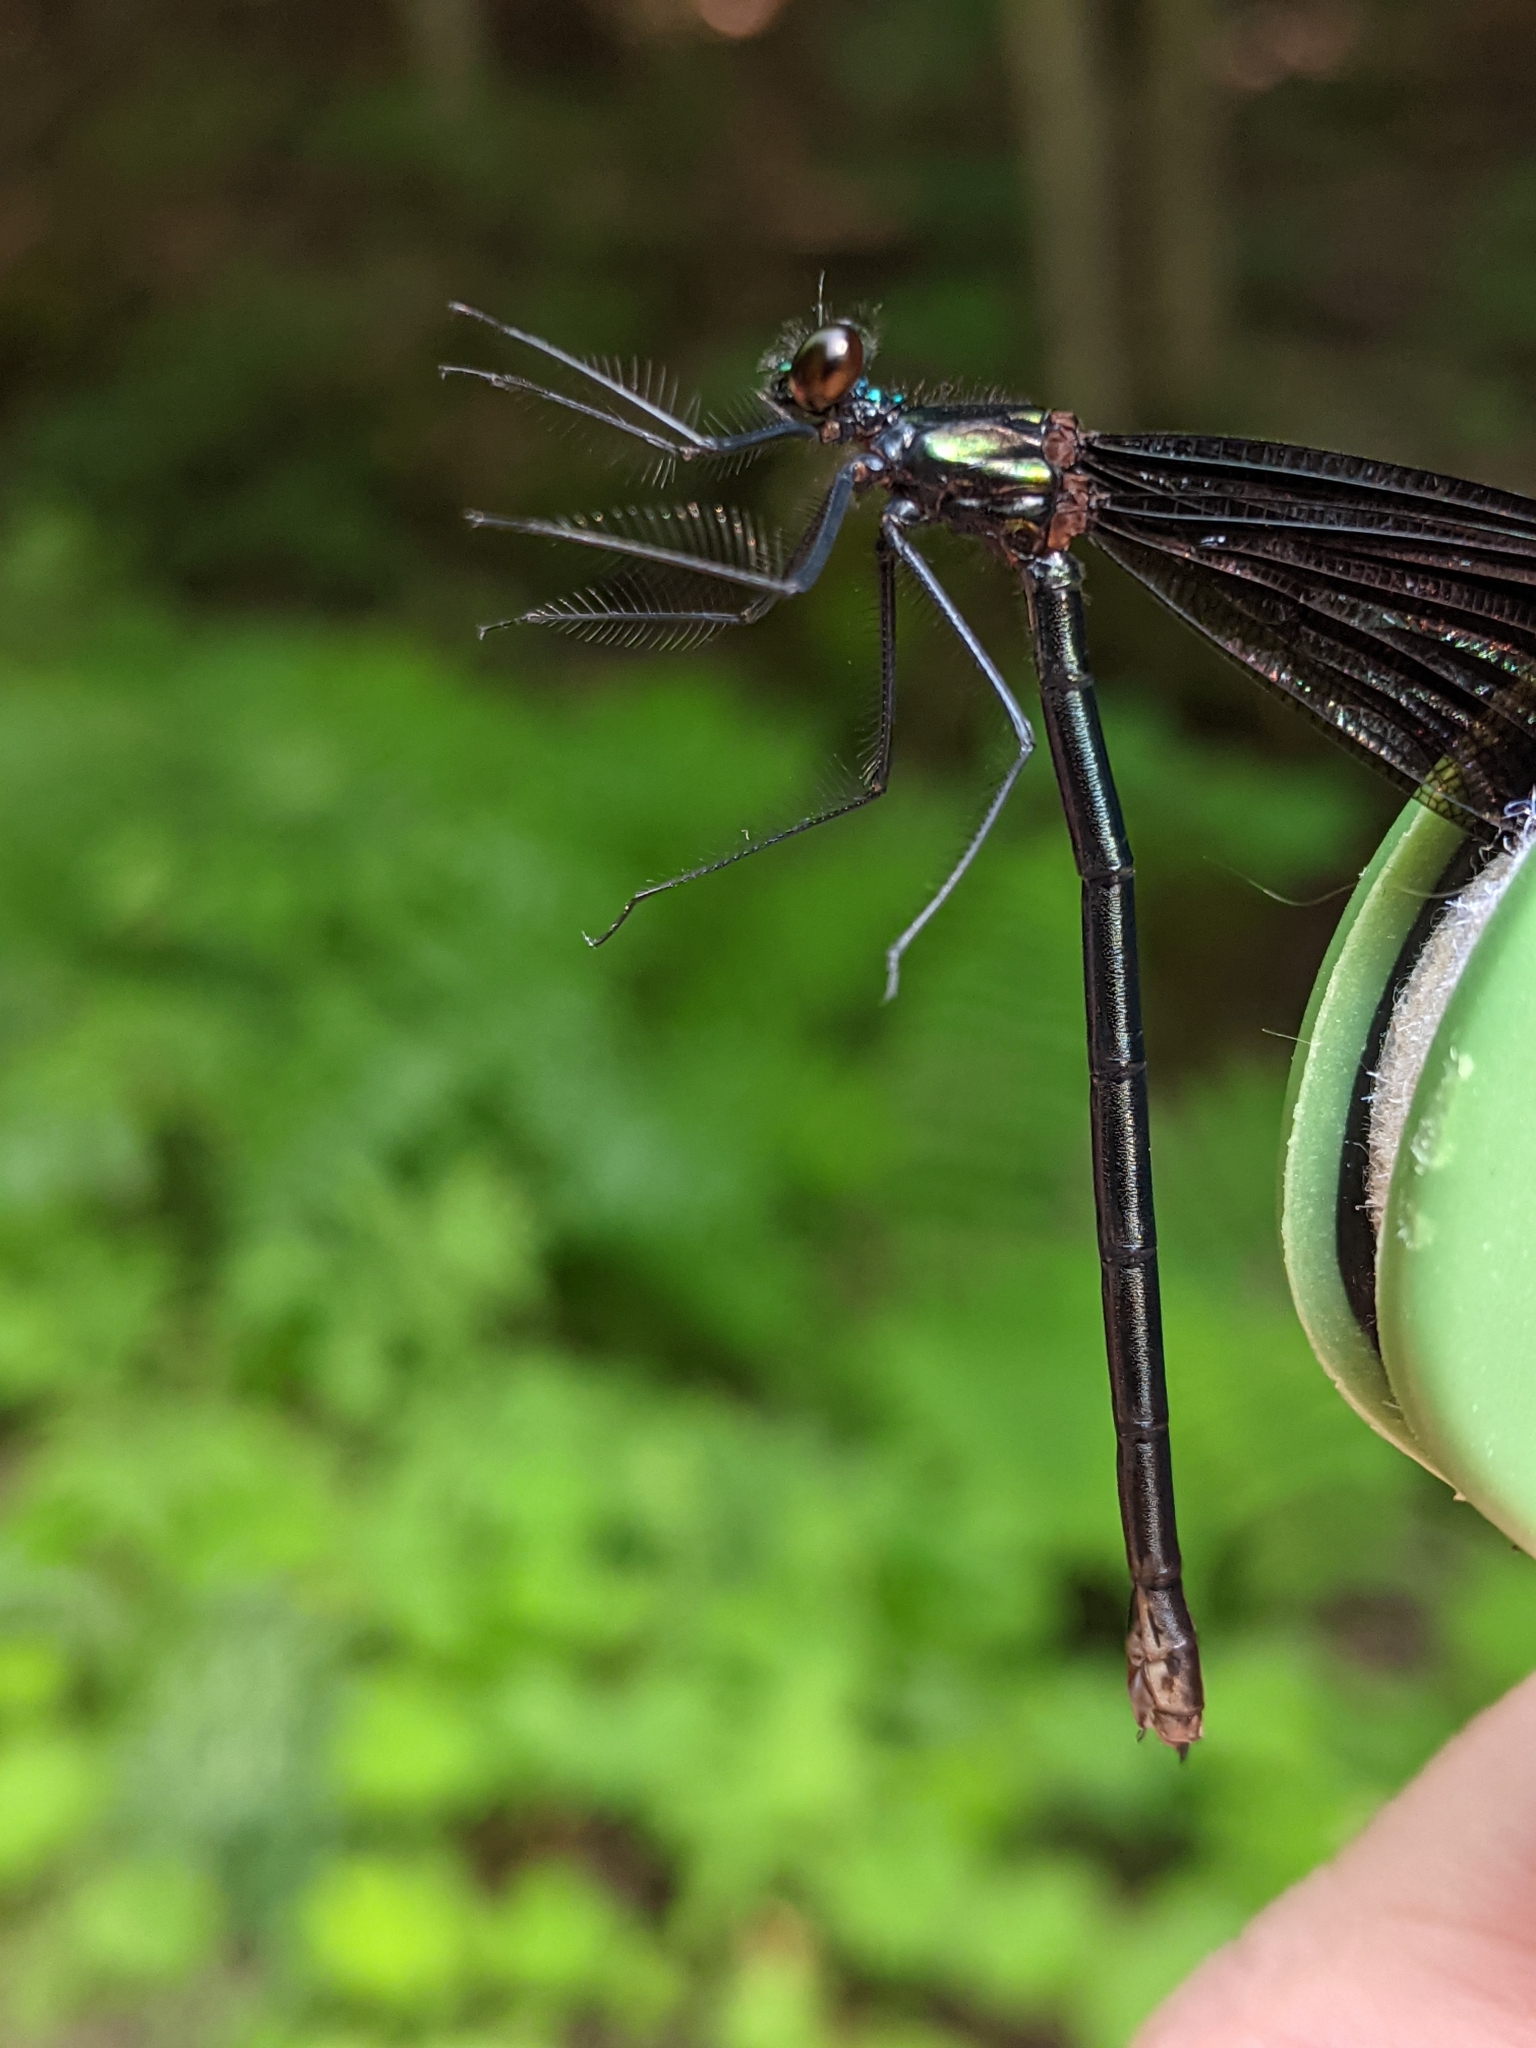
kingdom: Animalia
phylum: Arthropoda
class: Insecta
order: Odonata
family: Calopterygidae
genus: Calopteryx
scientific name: Calopteryx maculata
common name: Ebony jewelwing
